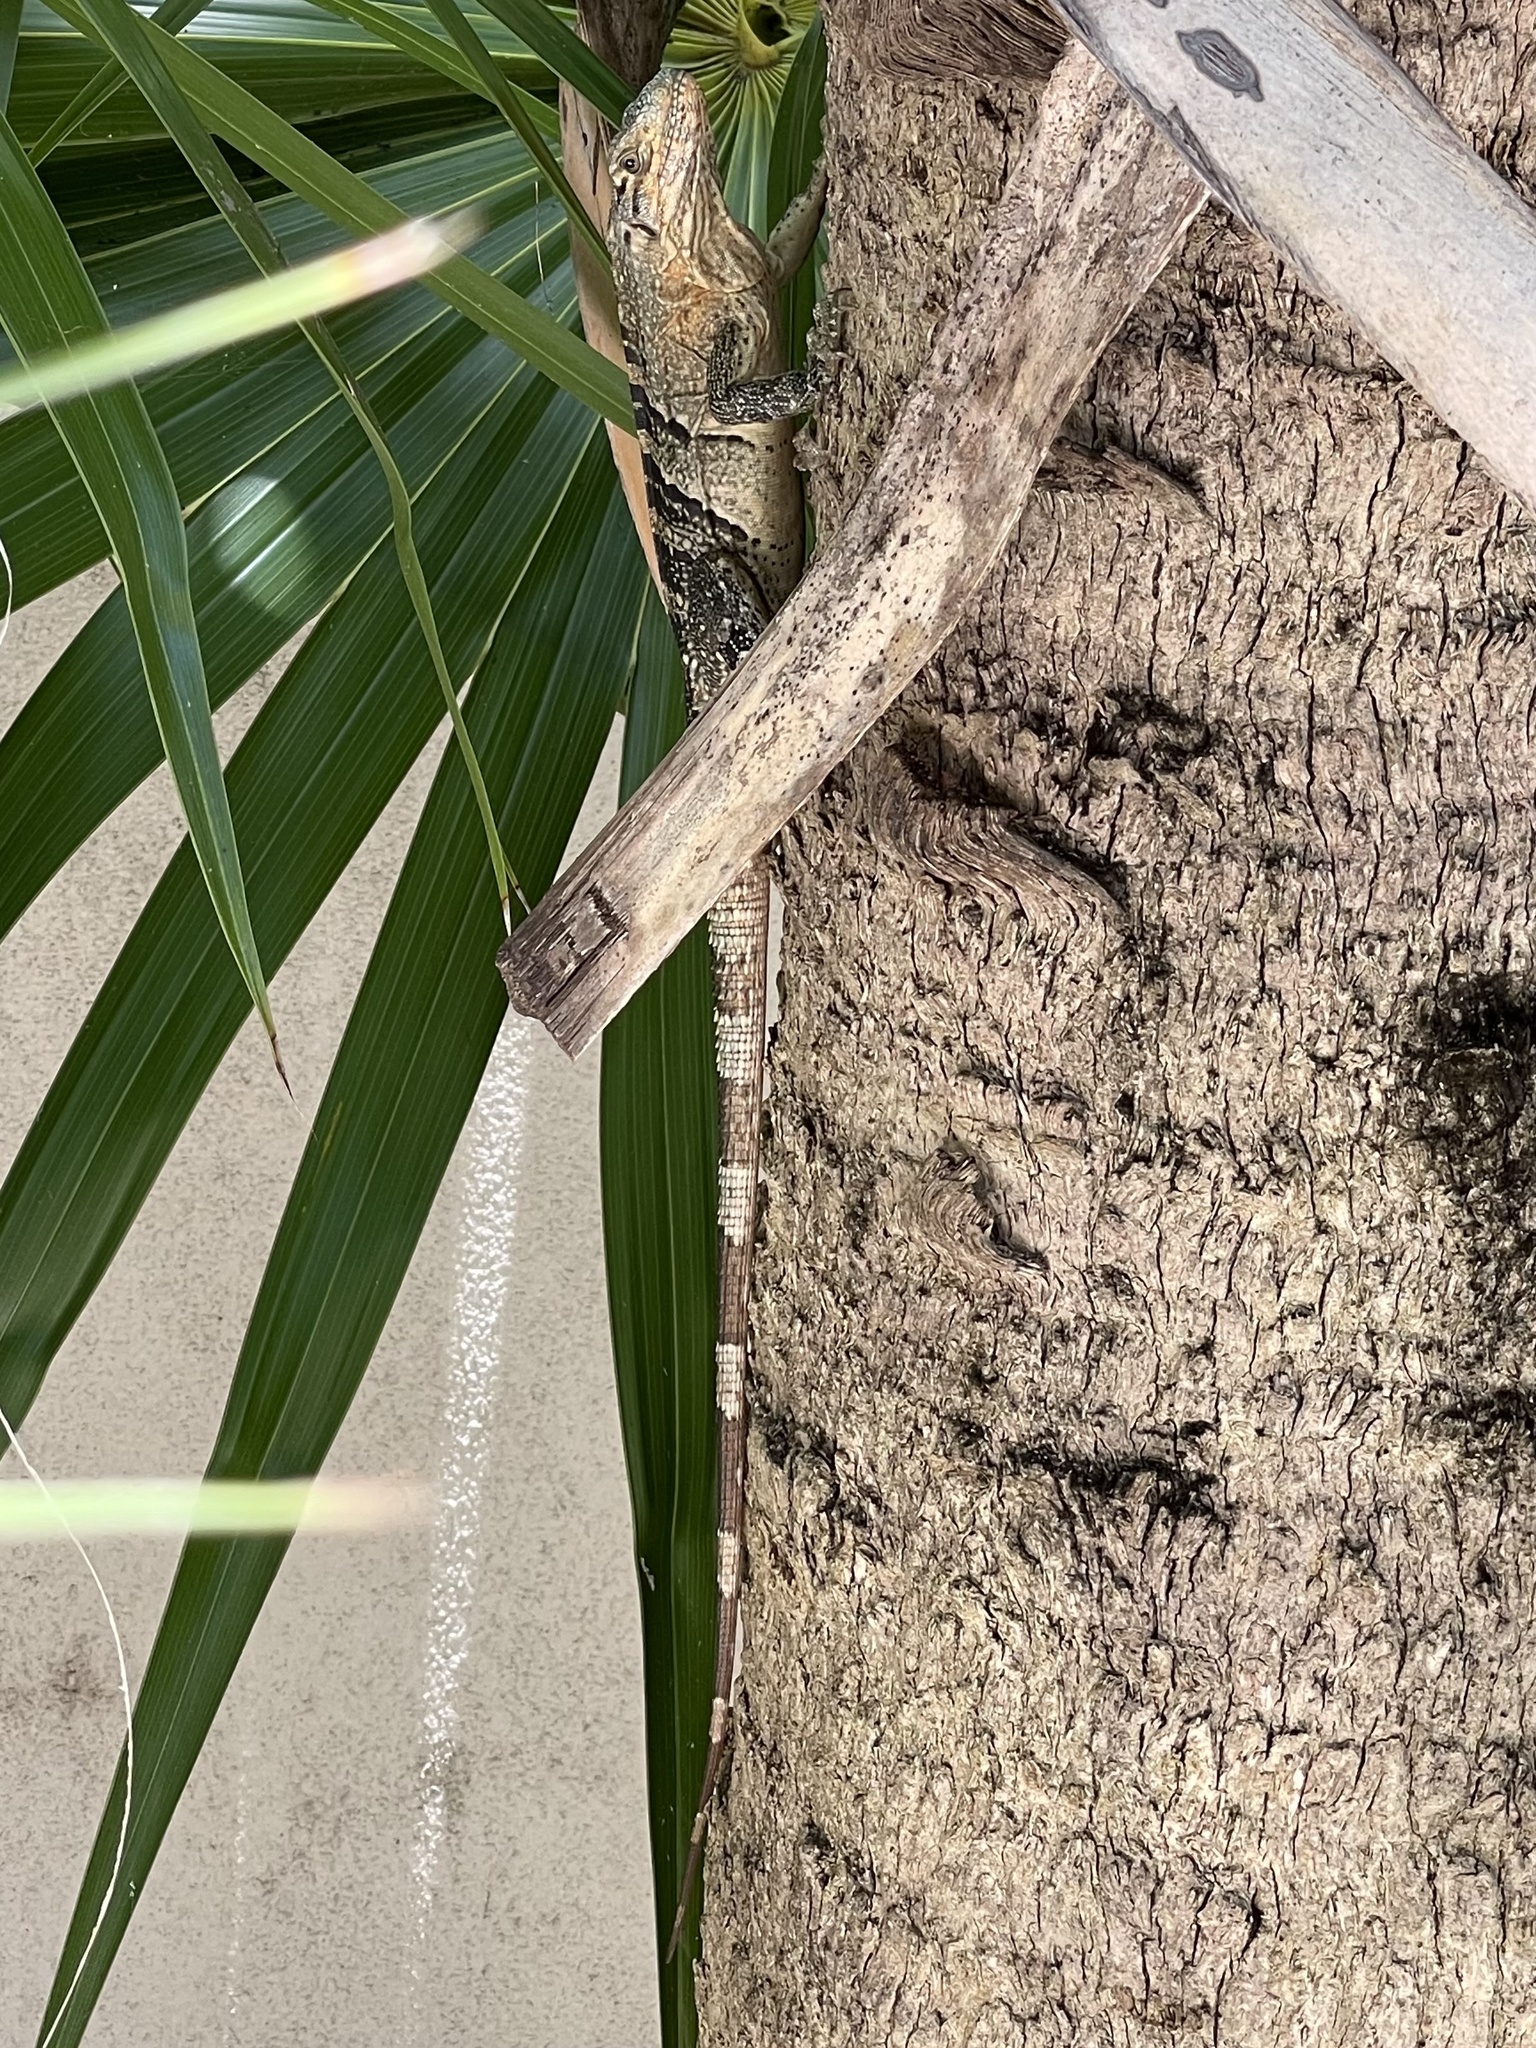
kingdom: Animalia
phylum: Chordata
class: Squamata
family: Iguanidae
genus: Ctenosaura
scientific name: Ctenosaura similis
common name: Black spiny-tailed iguana
